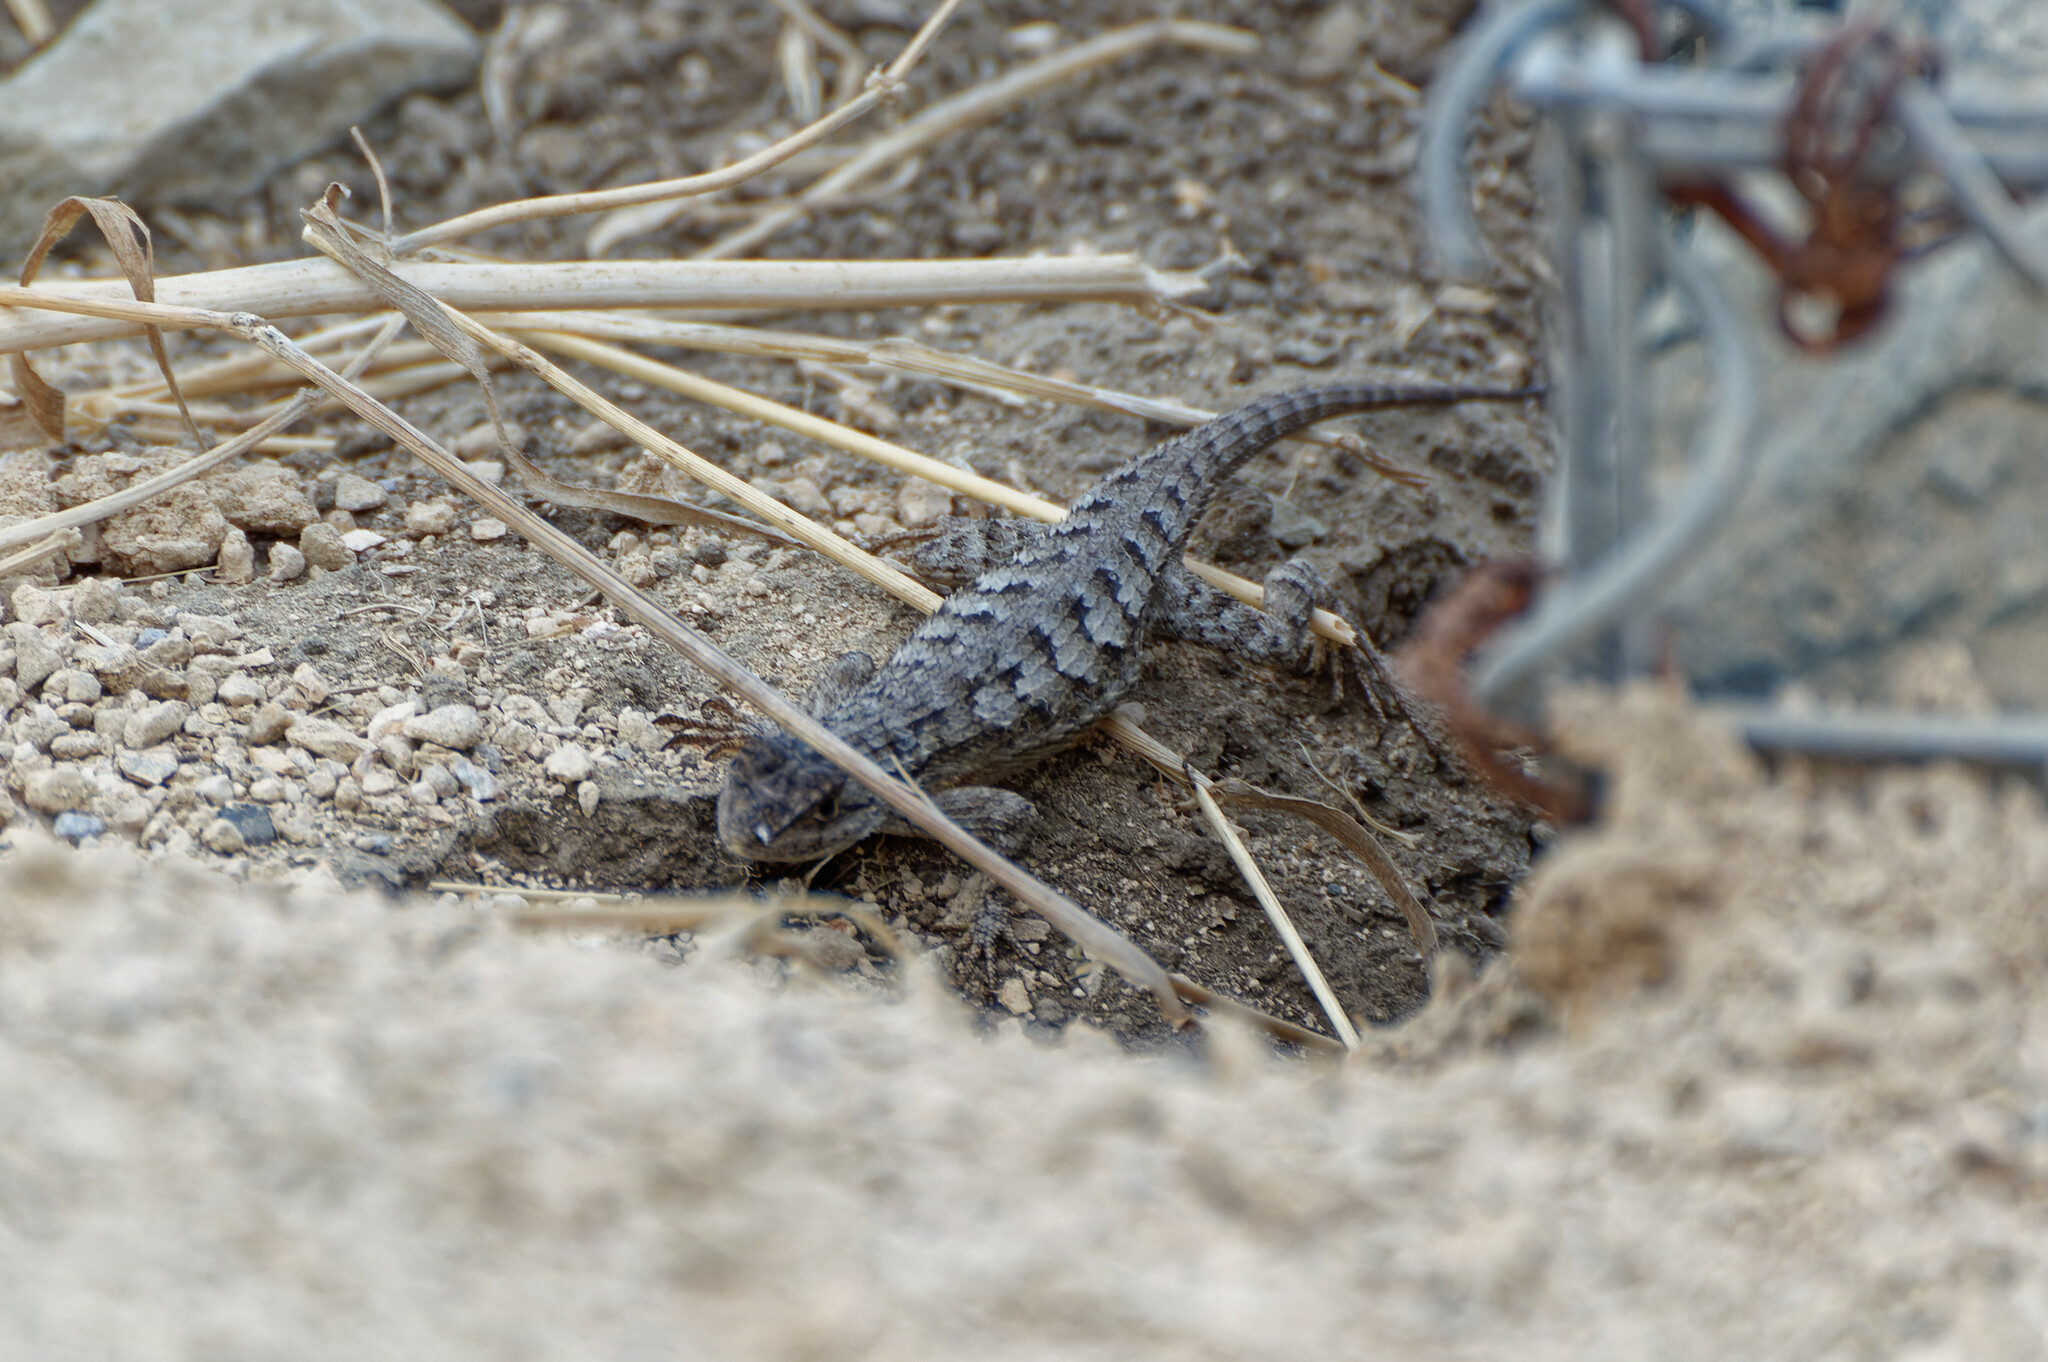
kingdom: Animalia
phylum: Chordata
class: Squamata
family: Phrynosomatidae
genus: Sceloporus
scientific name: Sceloporus occidentalis
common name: Western fence lizard
